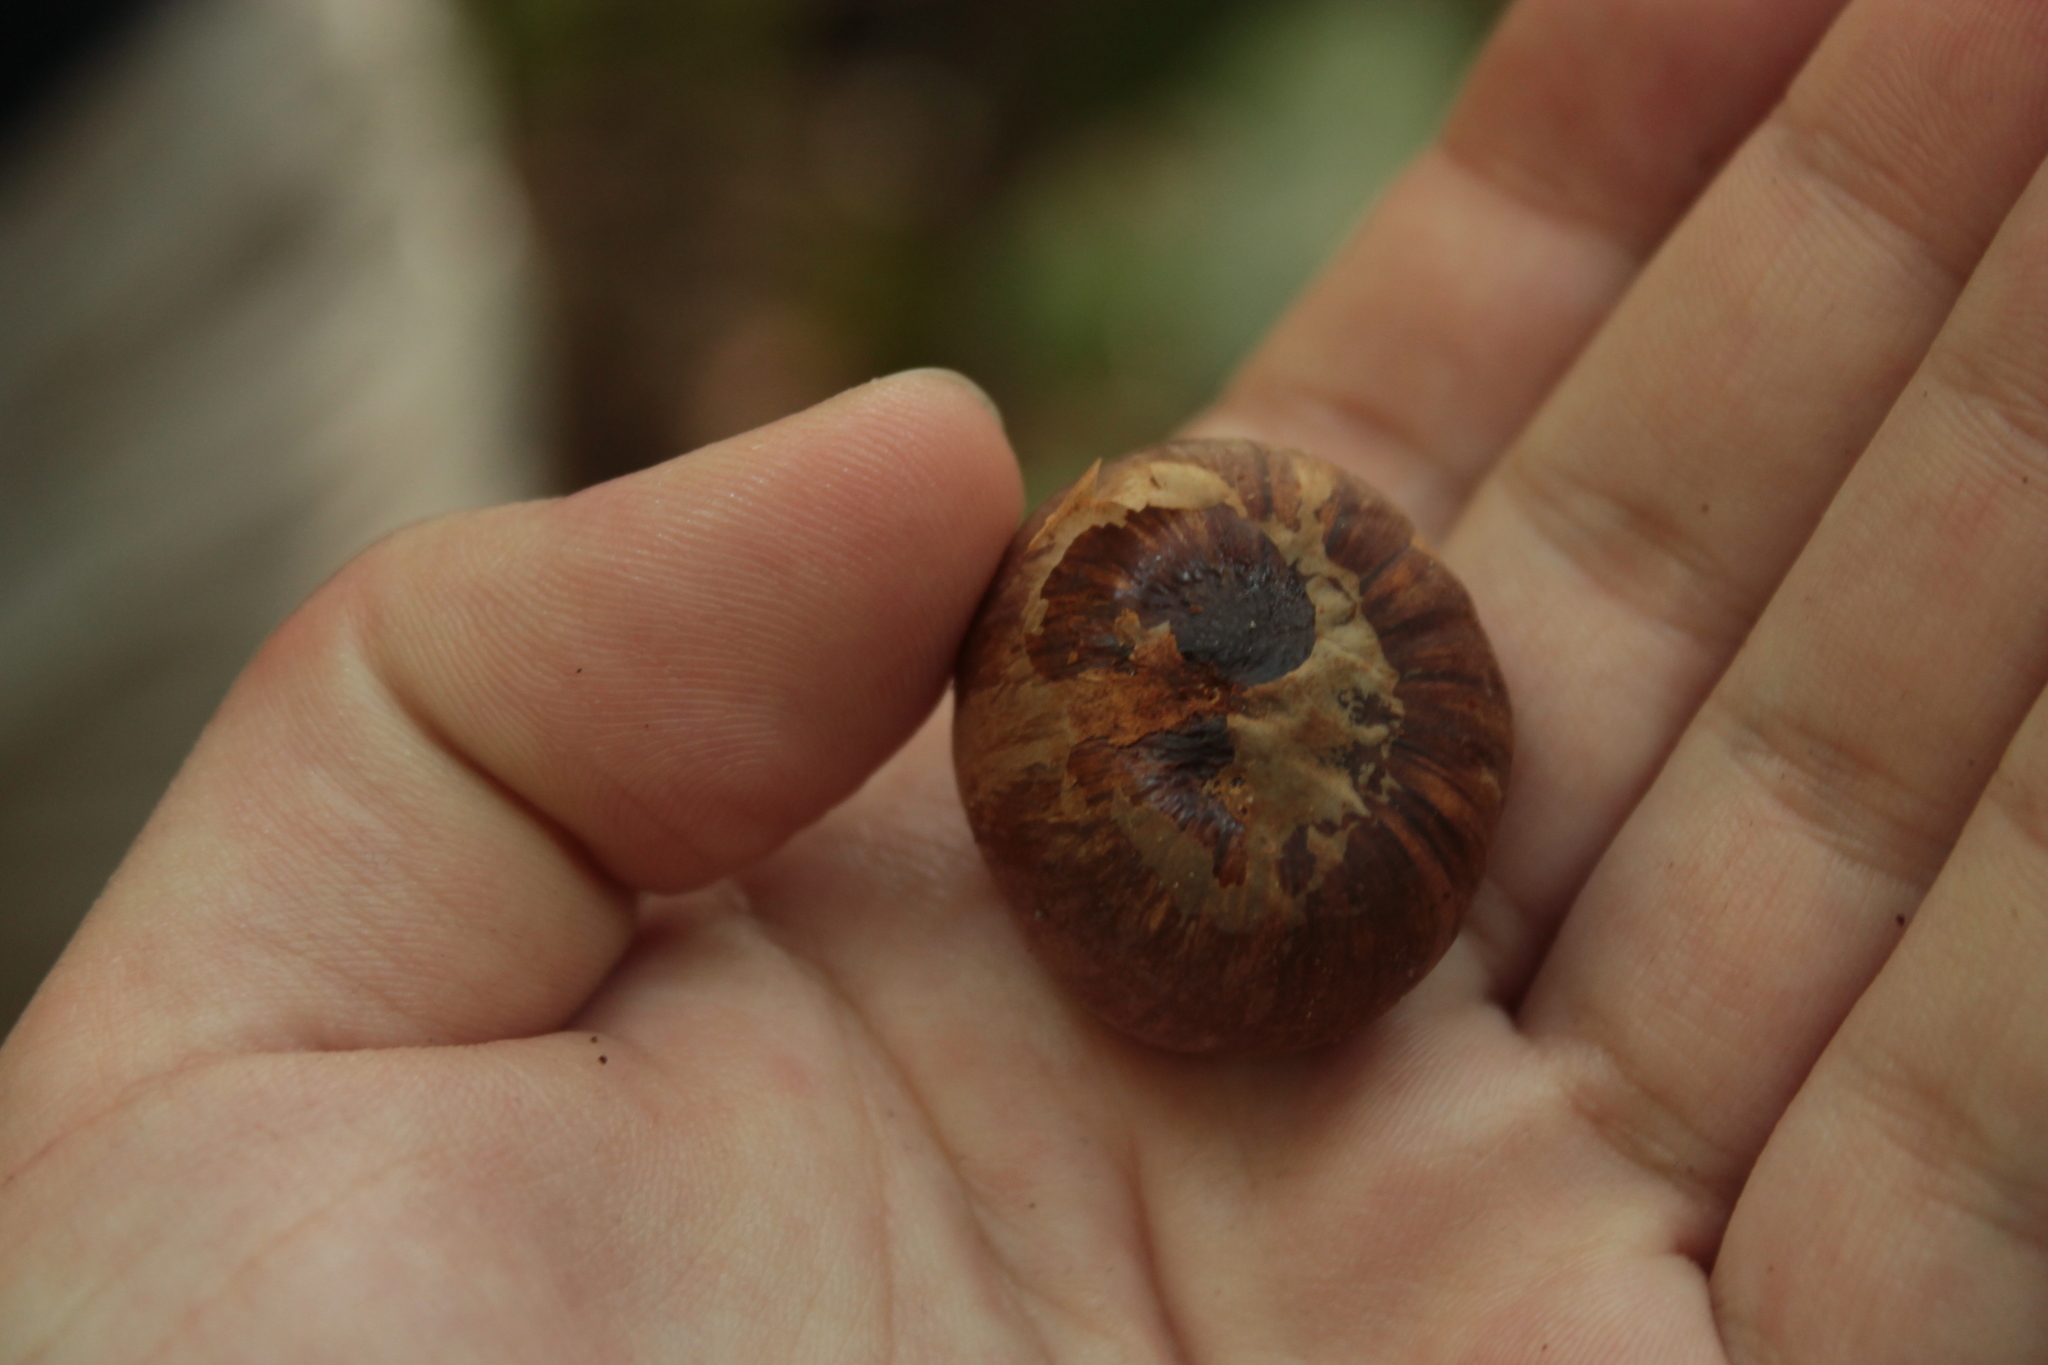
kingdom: Plantae
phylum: Tracheophyta
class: Magnoliopsida
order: Malpighiales
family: Euphorbiaceae
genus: Hura
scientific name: Hura crepitans
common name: Sandboxtree
